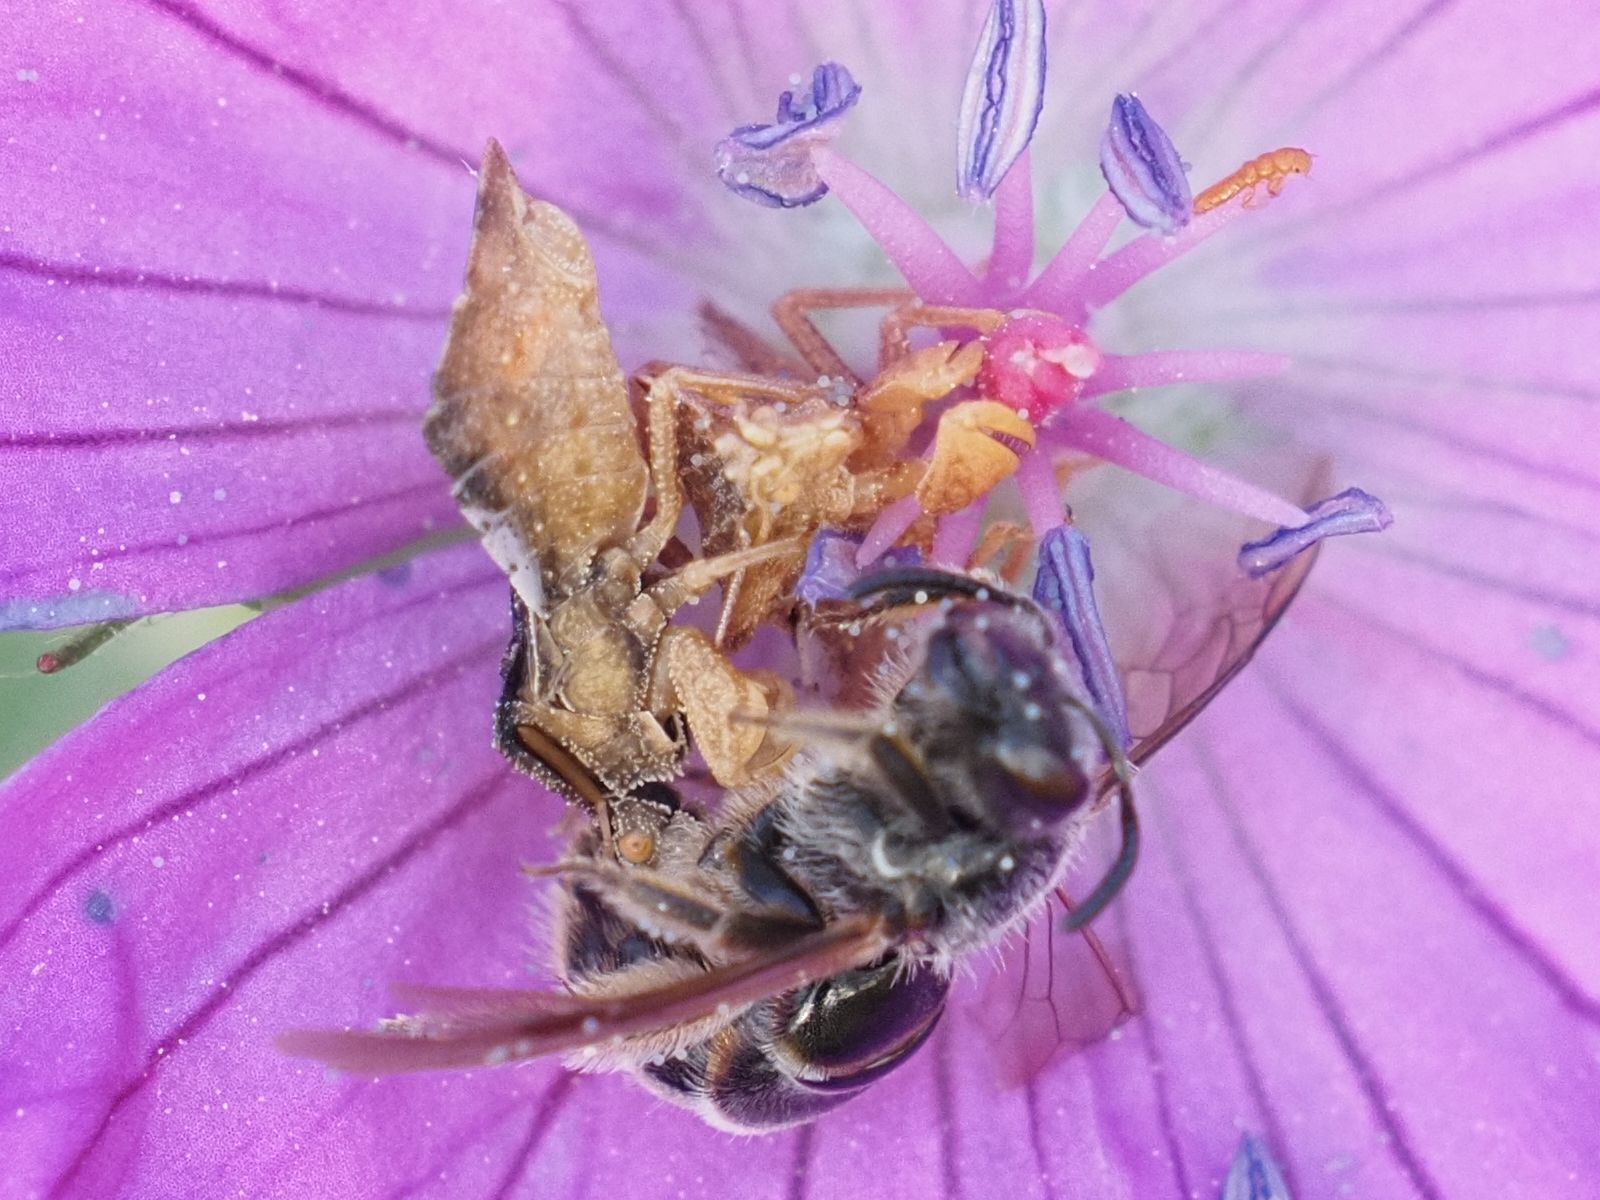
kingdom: Animalia
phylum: Arthropoda
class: Insecta
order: Hemiptera
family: Reduviidae
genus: Phymata
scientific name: Phymata crassipes
